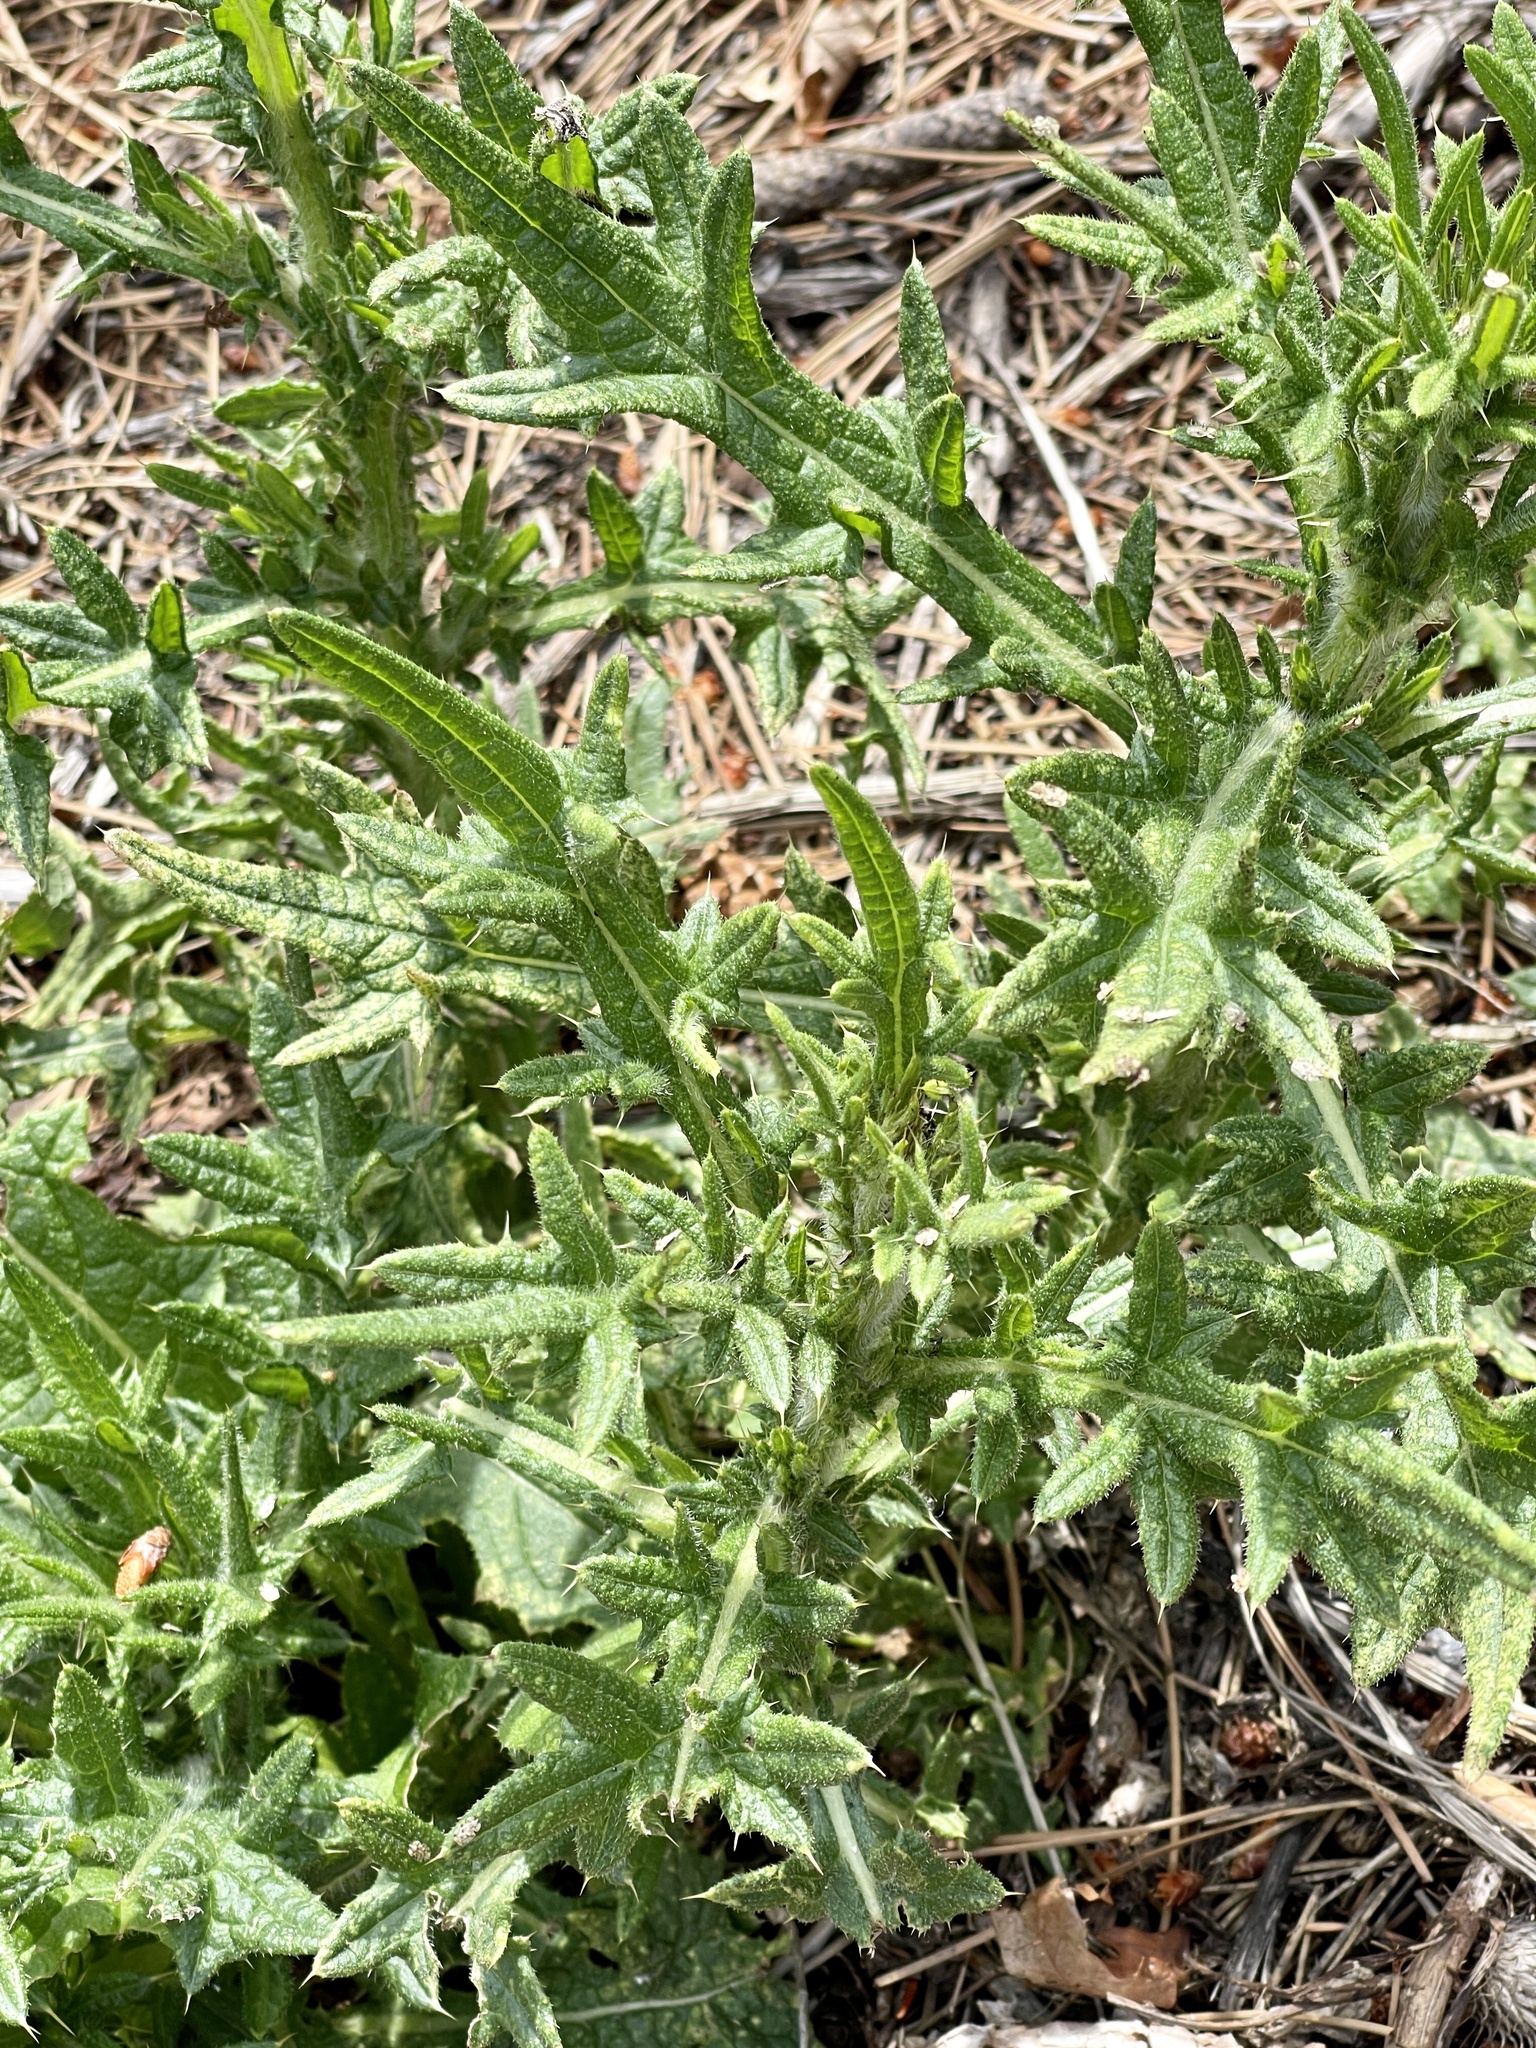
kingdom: Plantae
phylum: Tracheophyta
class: Magnoliopsida
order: Asterales
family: Asteraceae
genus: Cirsium
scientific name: Cirsium vulgare
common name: Bull thistle
